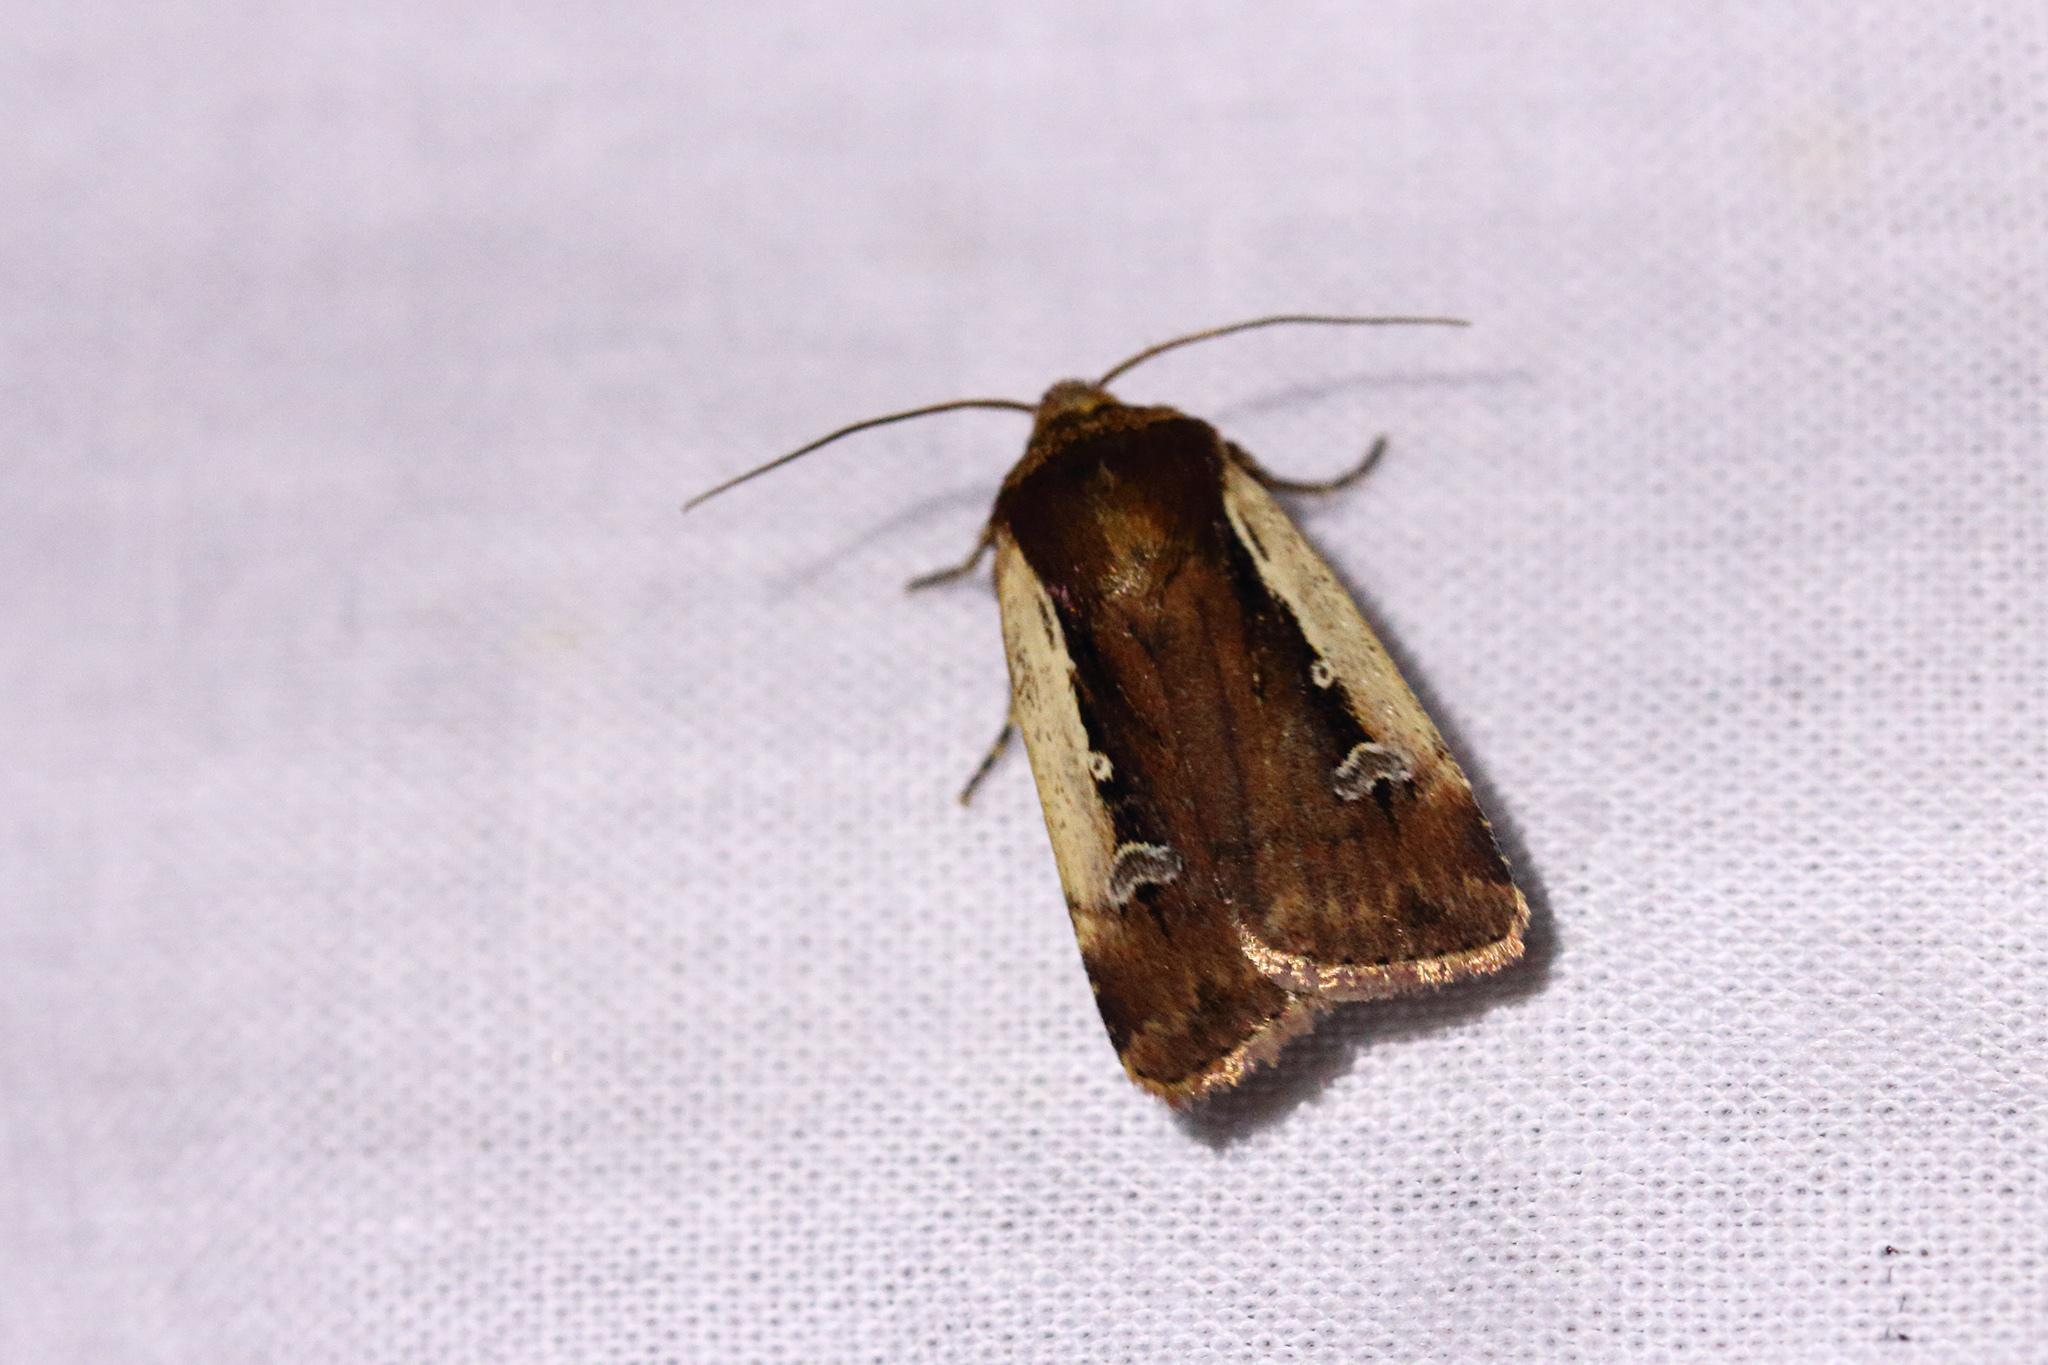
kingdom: Animalia
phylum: Arthropoda
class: Insecta
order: Lepidoptera
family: Noctuidae
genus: Ochropleura
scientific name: Ochropleura plecta
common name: Flame shoulder
